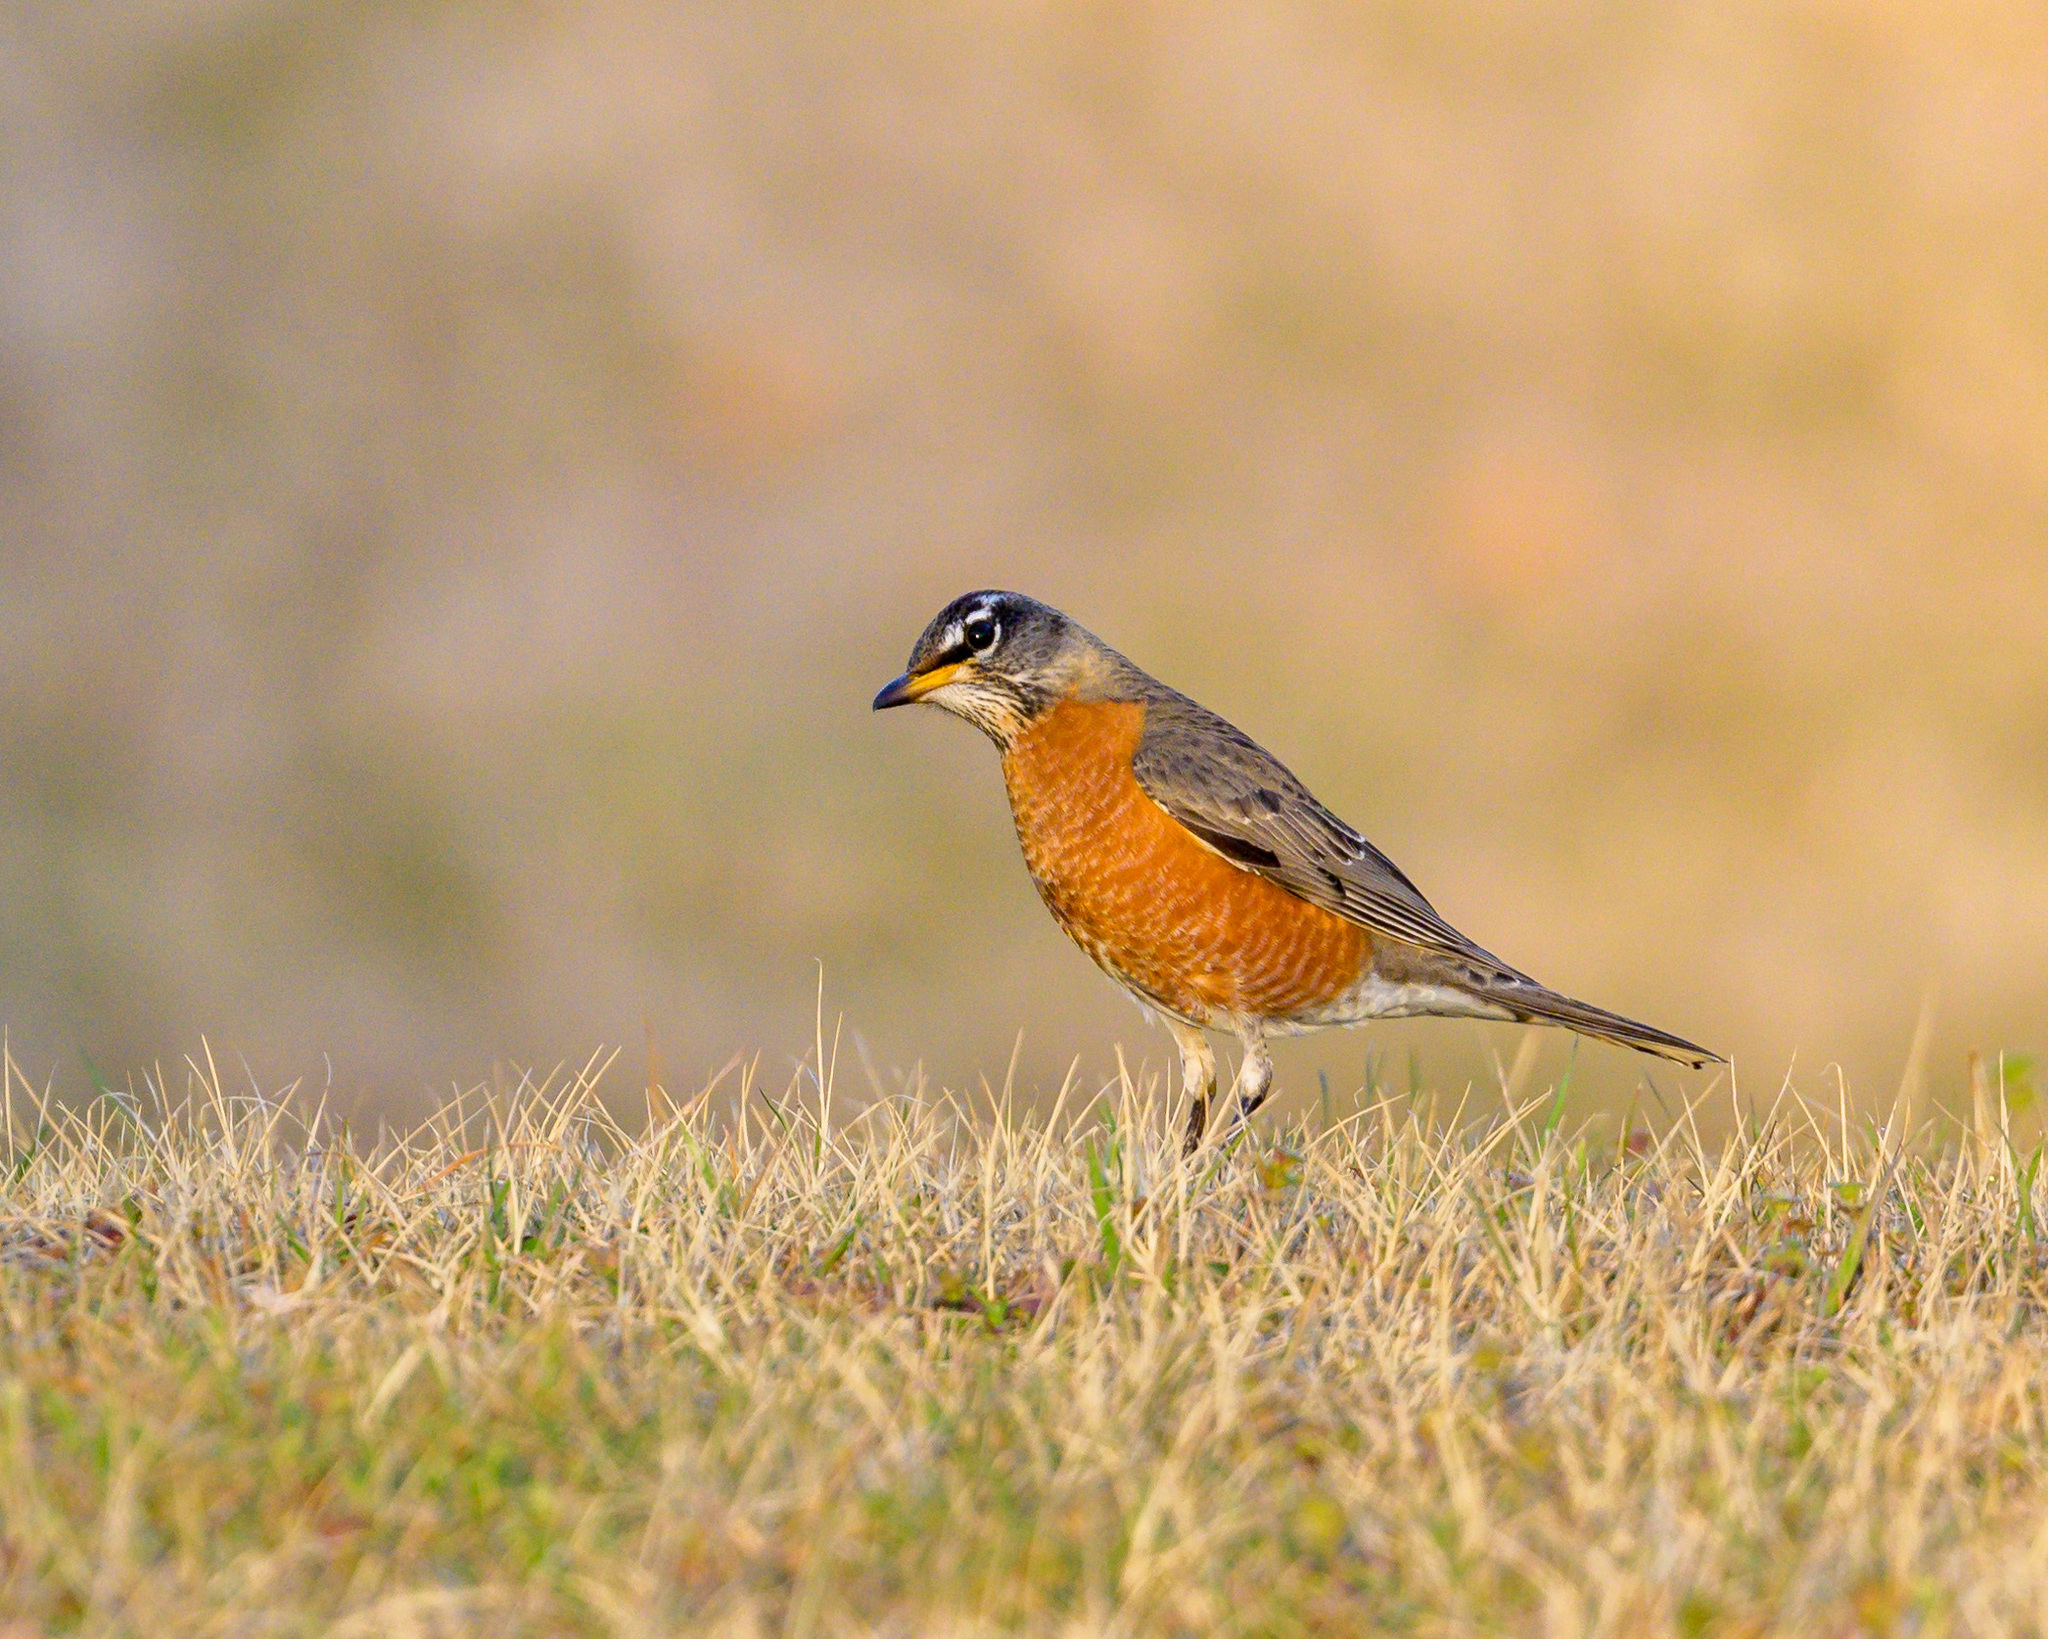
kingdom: Animalia
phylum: Chordata
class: Aves
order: Passeriformes
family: Turdidae
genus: Turdus
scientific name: Turdus migratorius
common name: American robin
